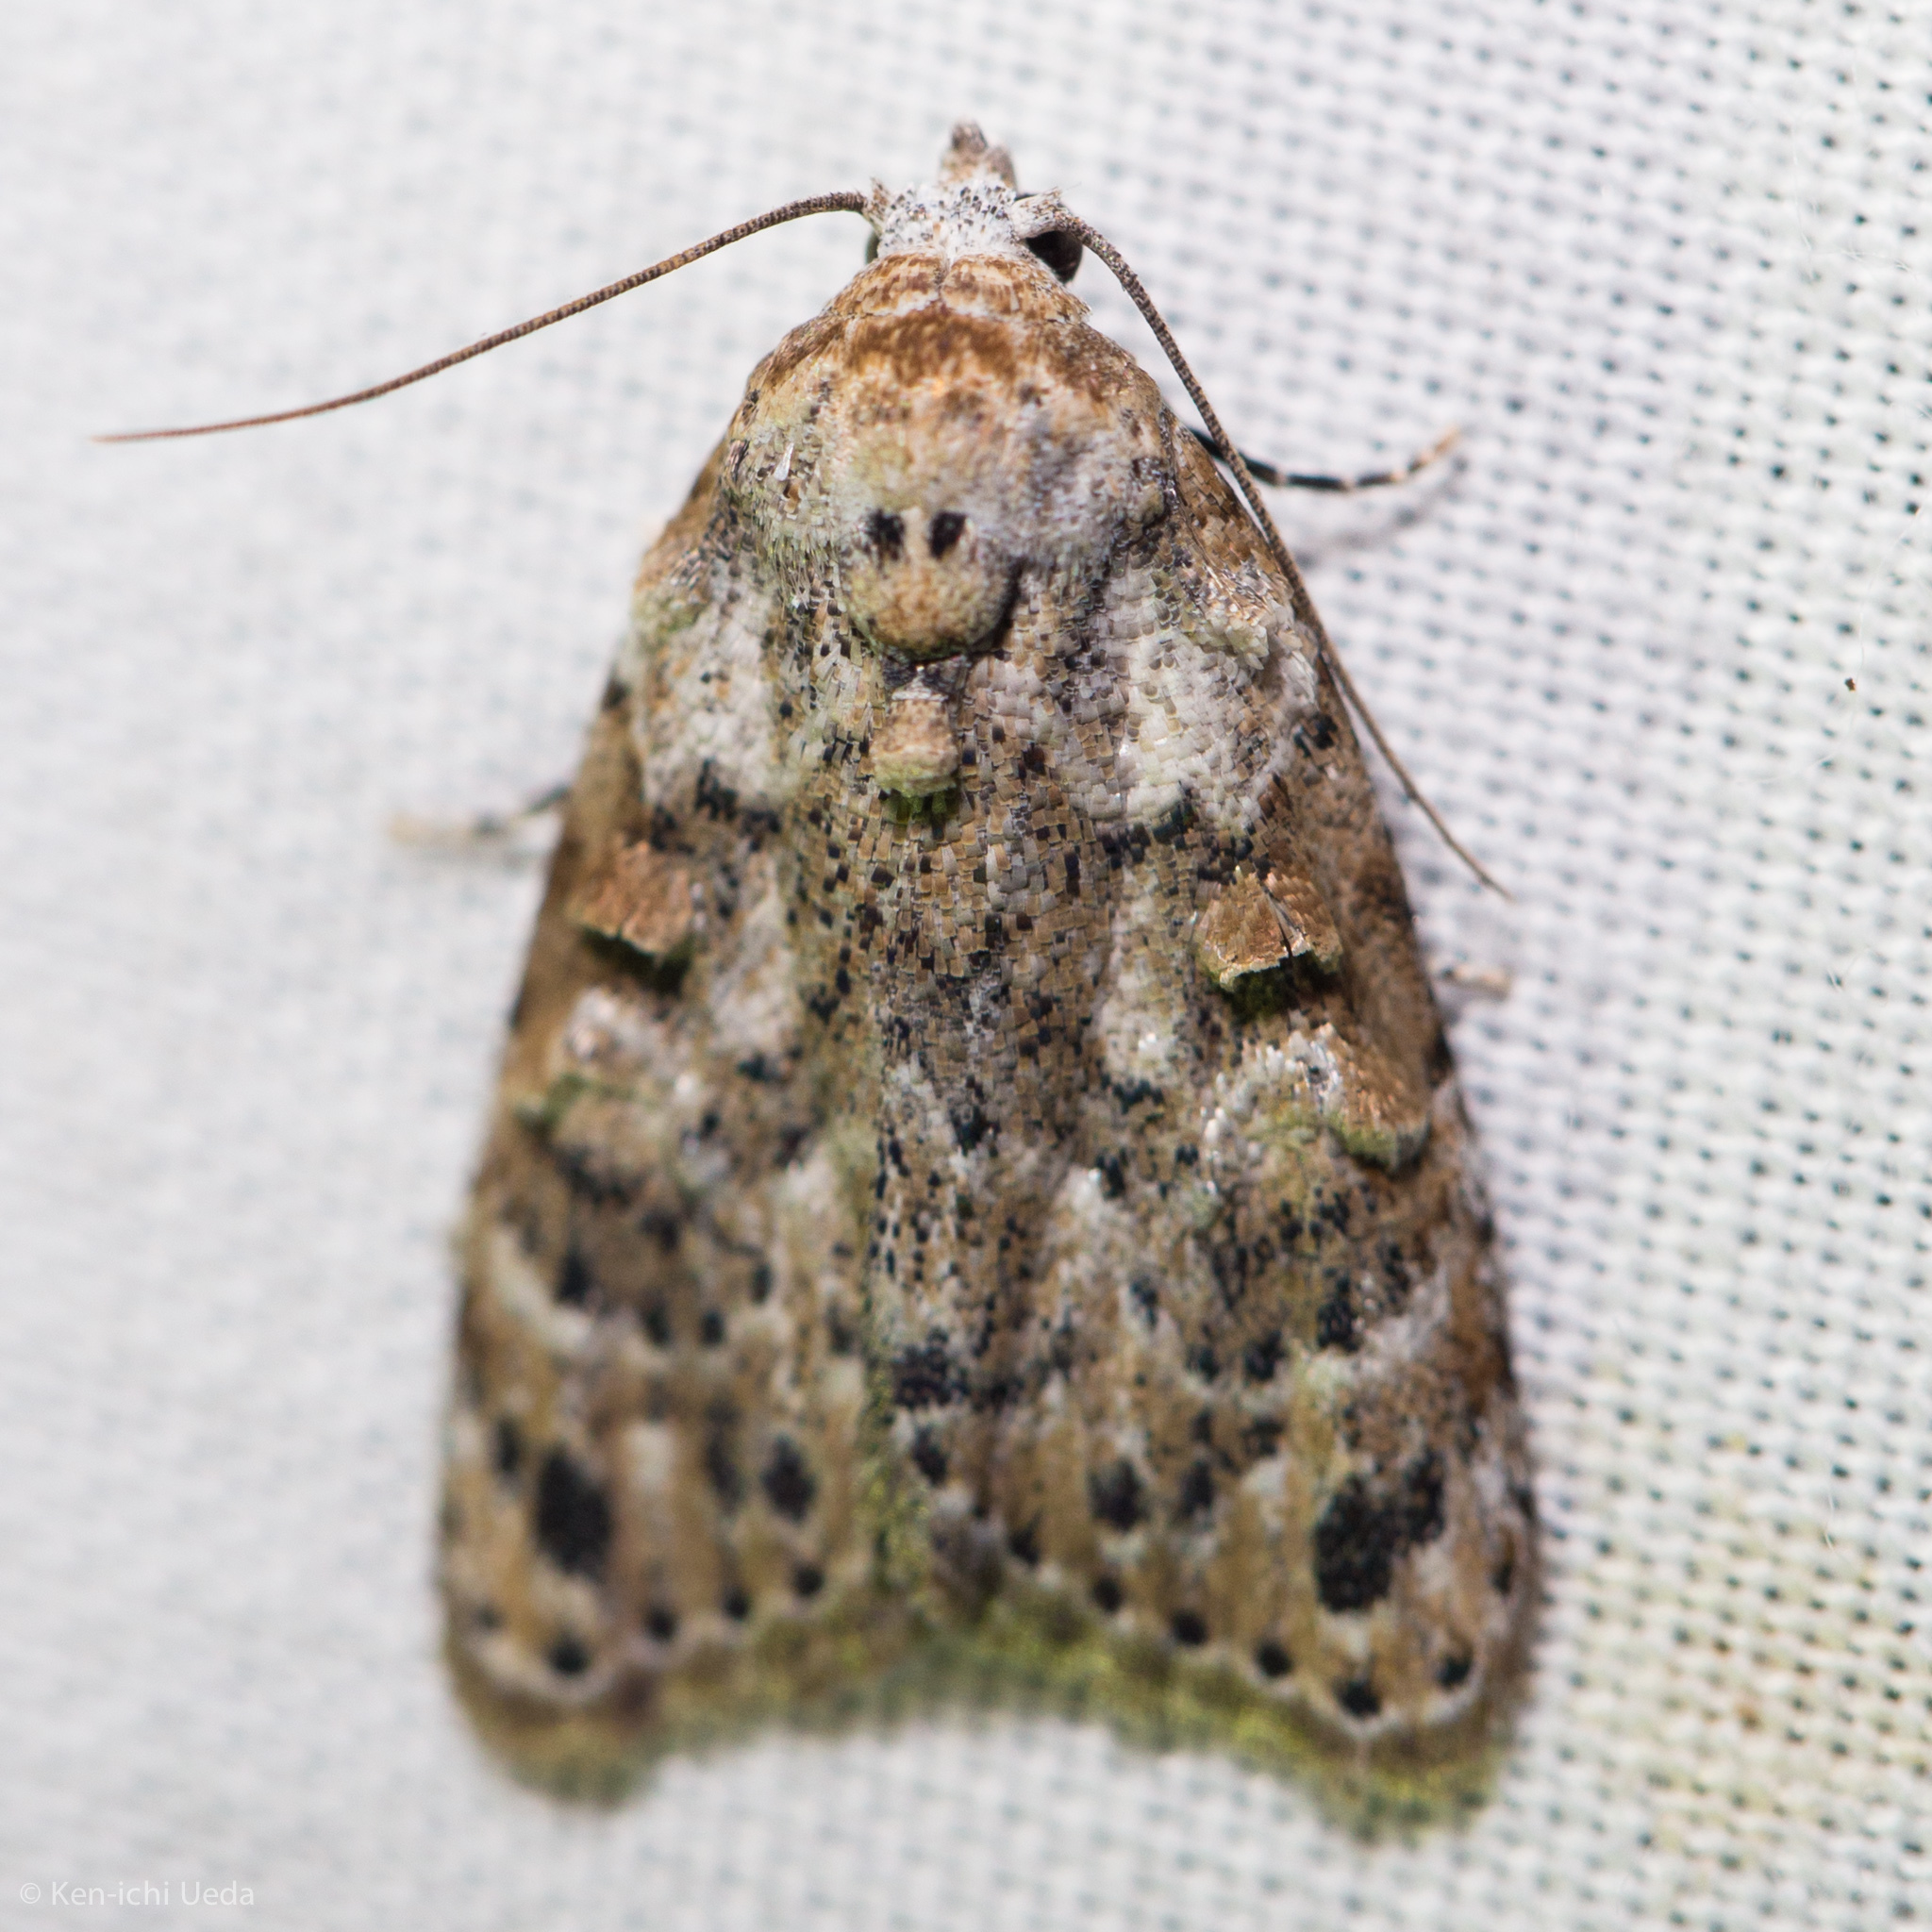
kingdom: Animalia
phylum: Arthropoda
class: Insecta
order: Lepidoptera
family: Nolidae
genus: Nola
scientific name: Nola epicentra
